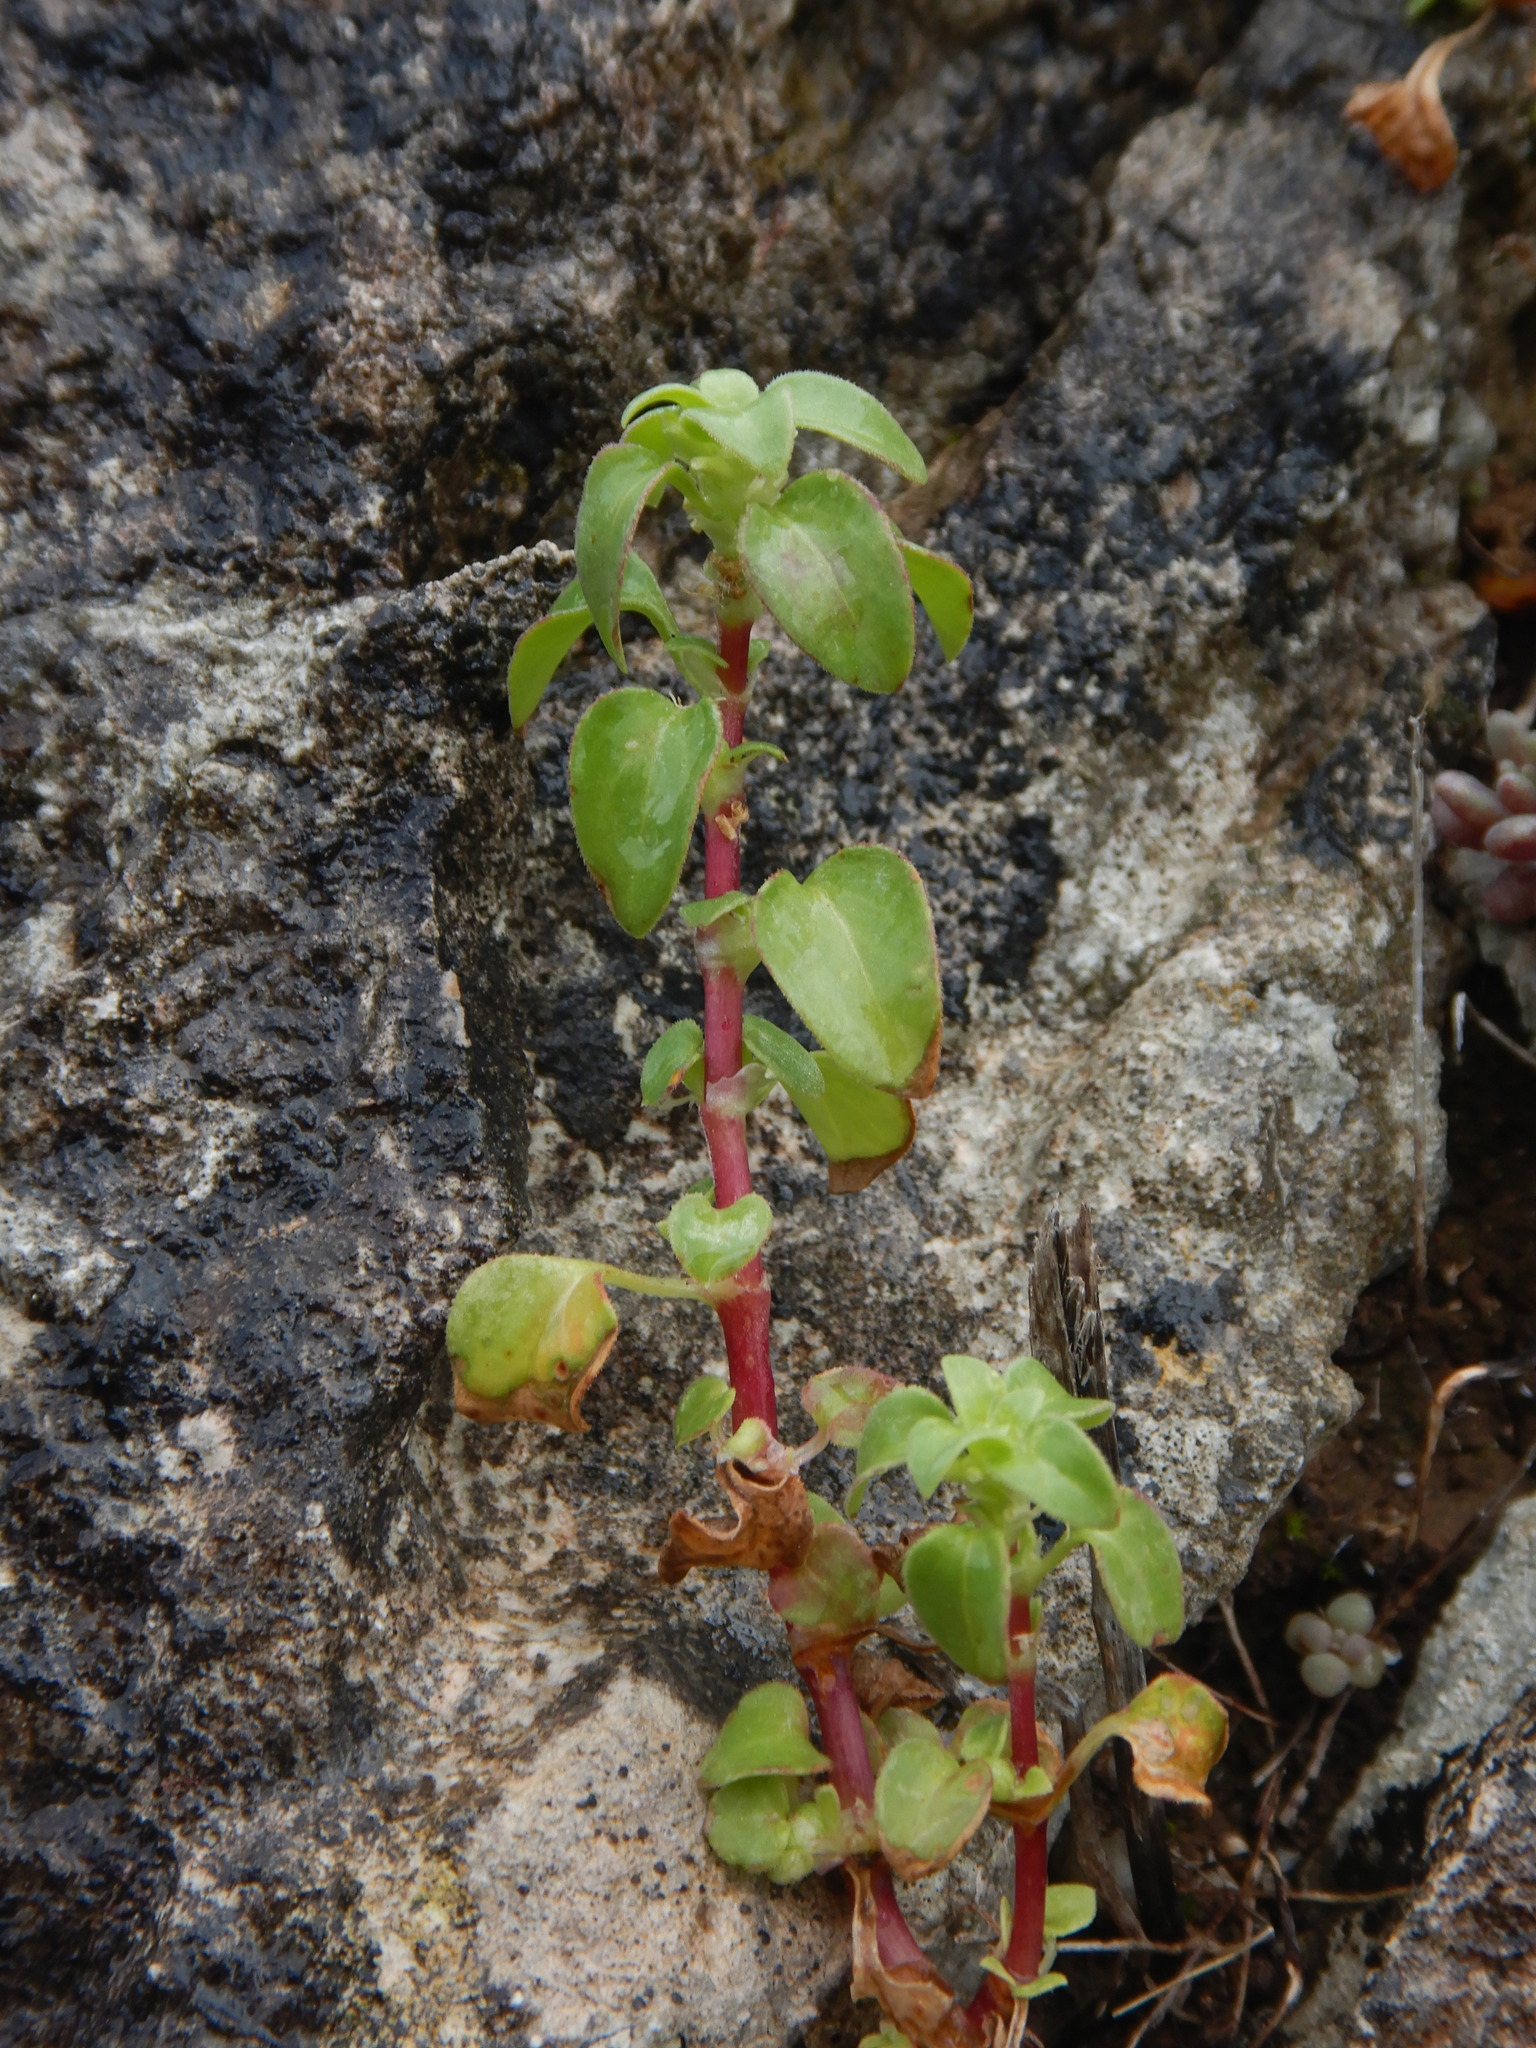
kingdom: Plantae
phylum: Tracheophyta
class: Magnoliopsida
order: Gentianales
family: Rubiaceae
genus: Theligonum
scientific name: Theligonum cynocrambe
